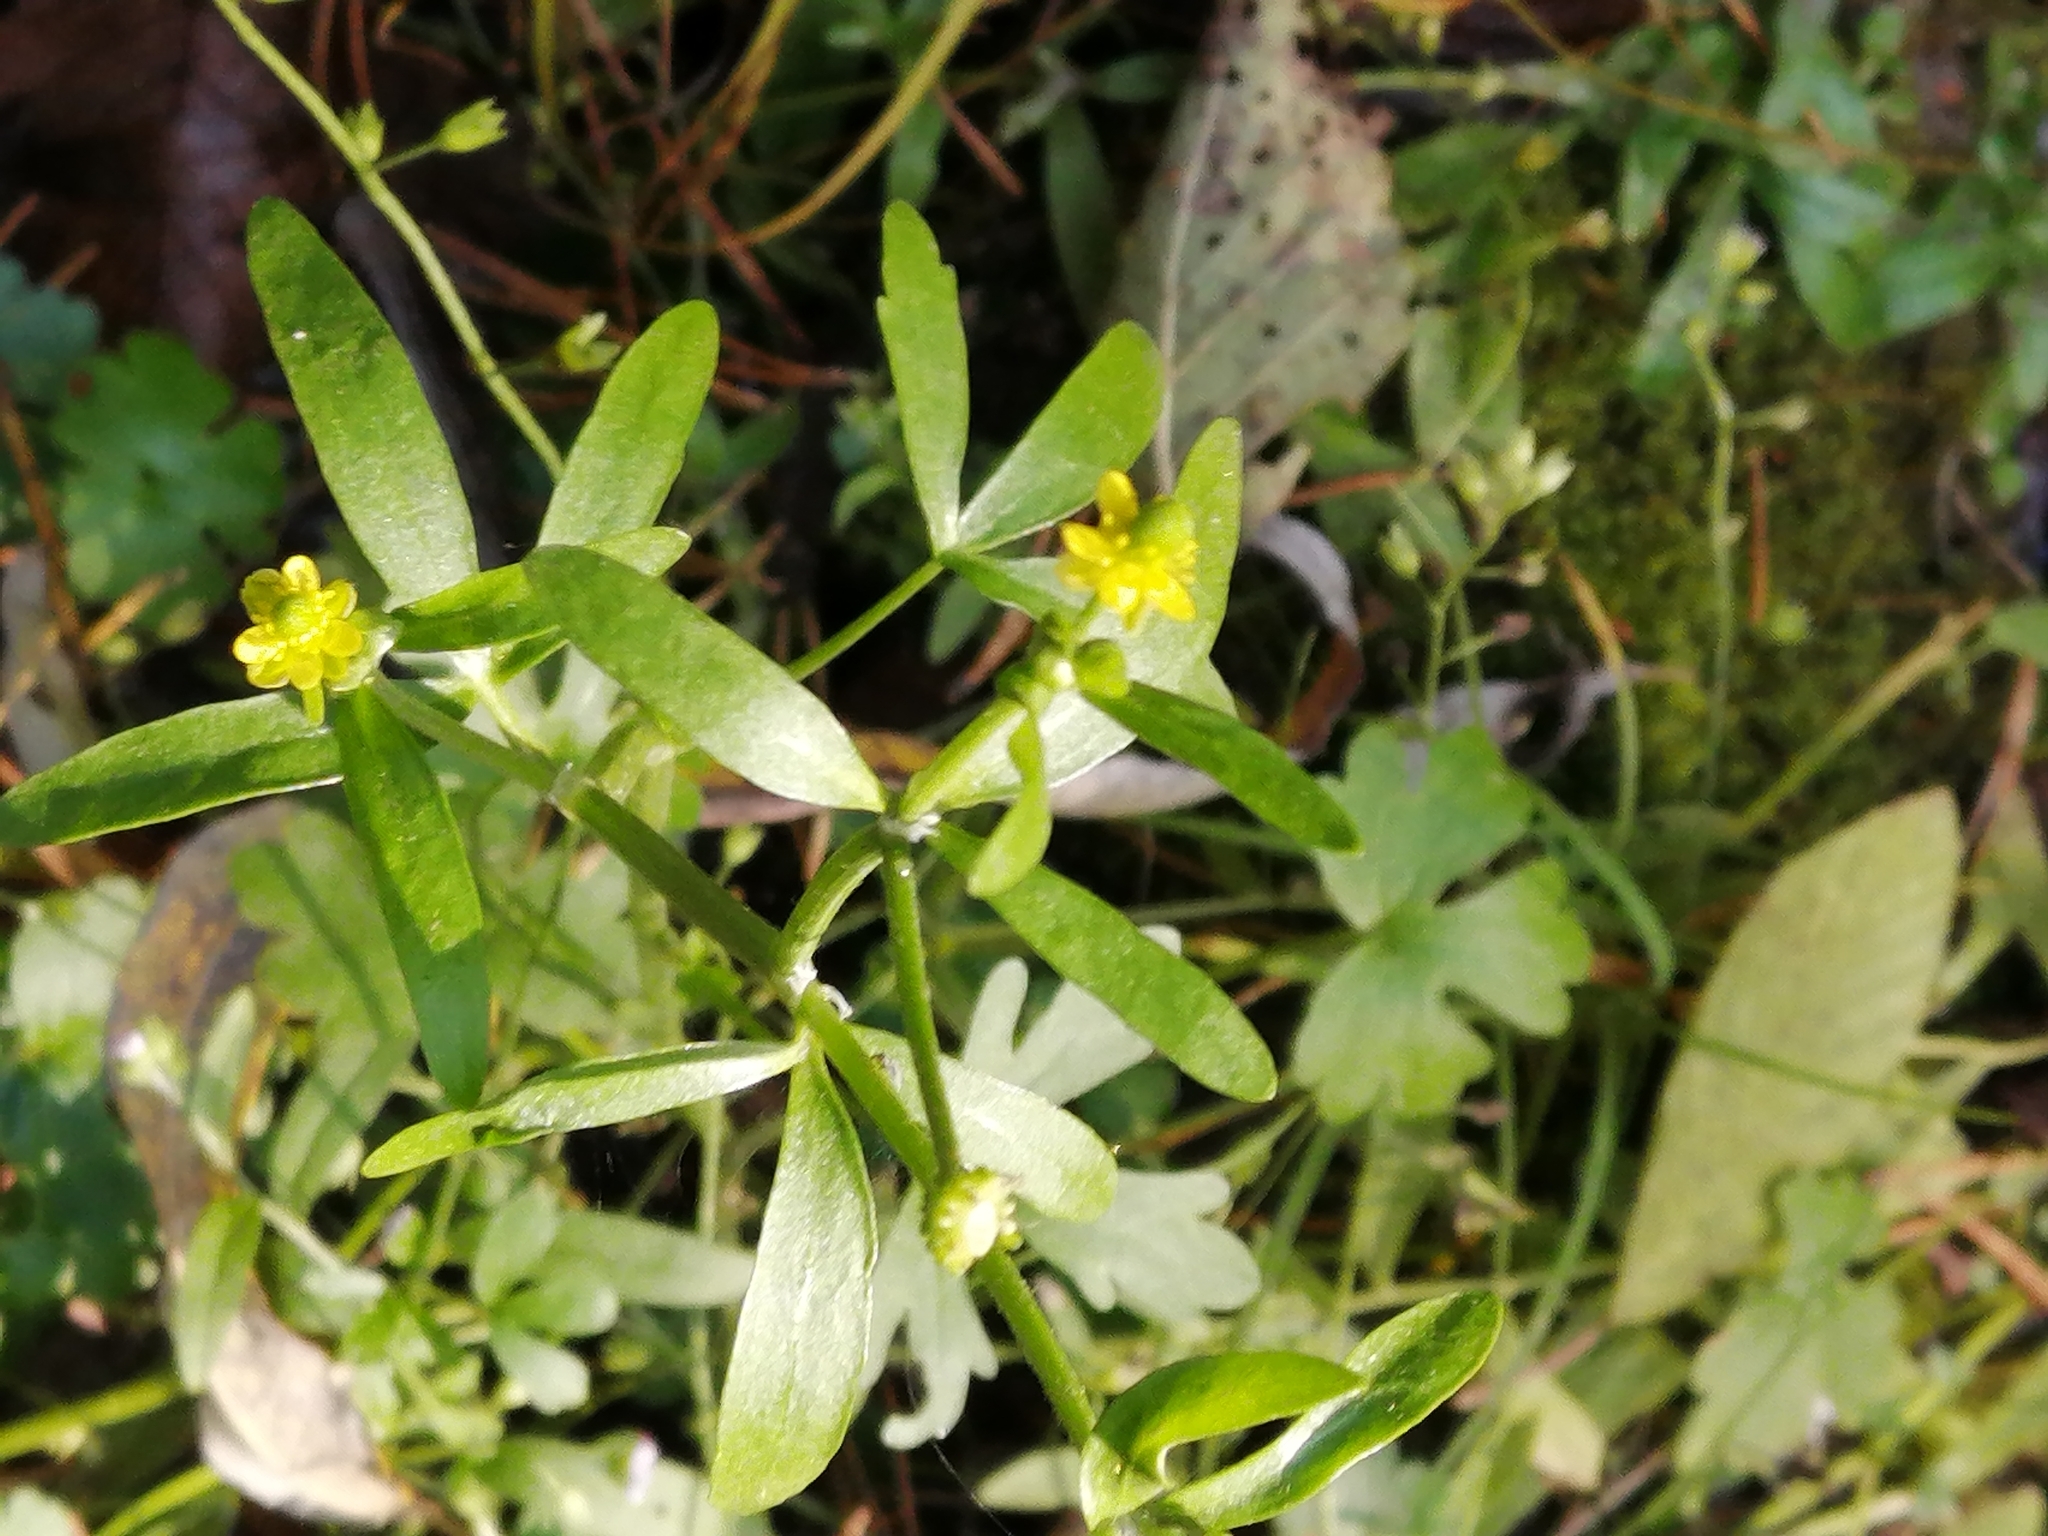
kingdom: Plantae
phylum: Tracheophyta
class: Magnoliopsida
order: Ranunculales
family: Ranunculaceae
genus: Ranunculus
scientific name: Ranunculus sceleratus
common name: Celery-leaved buttercup
